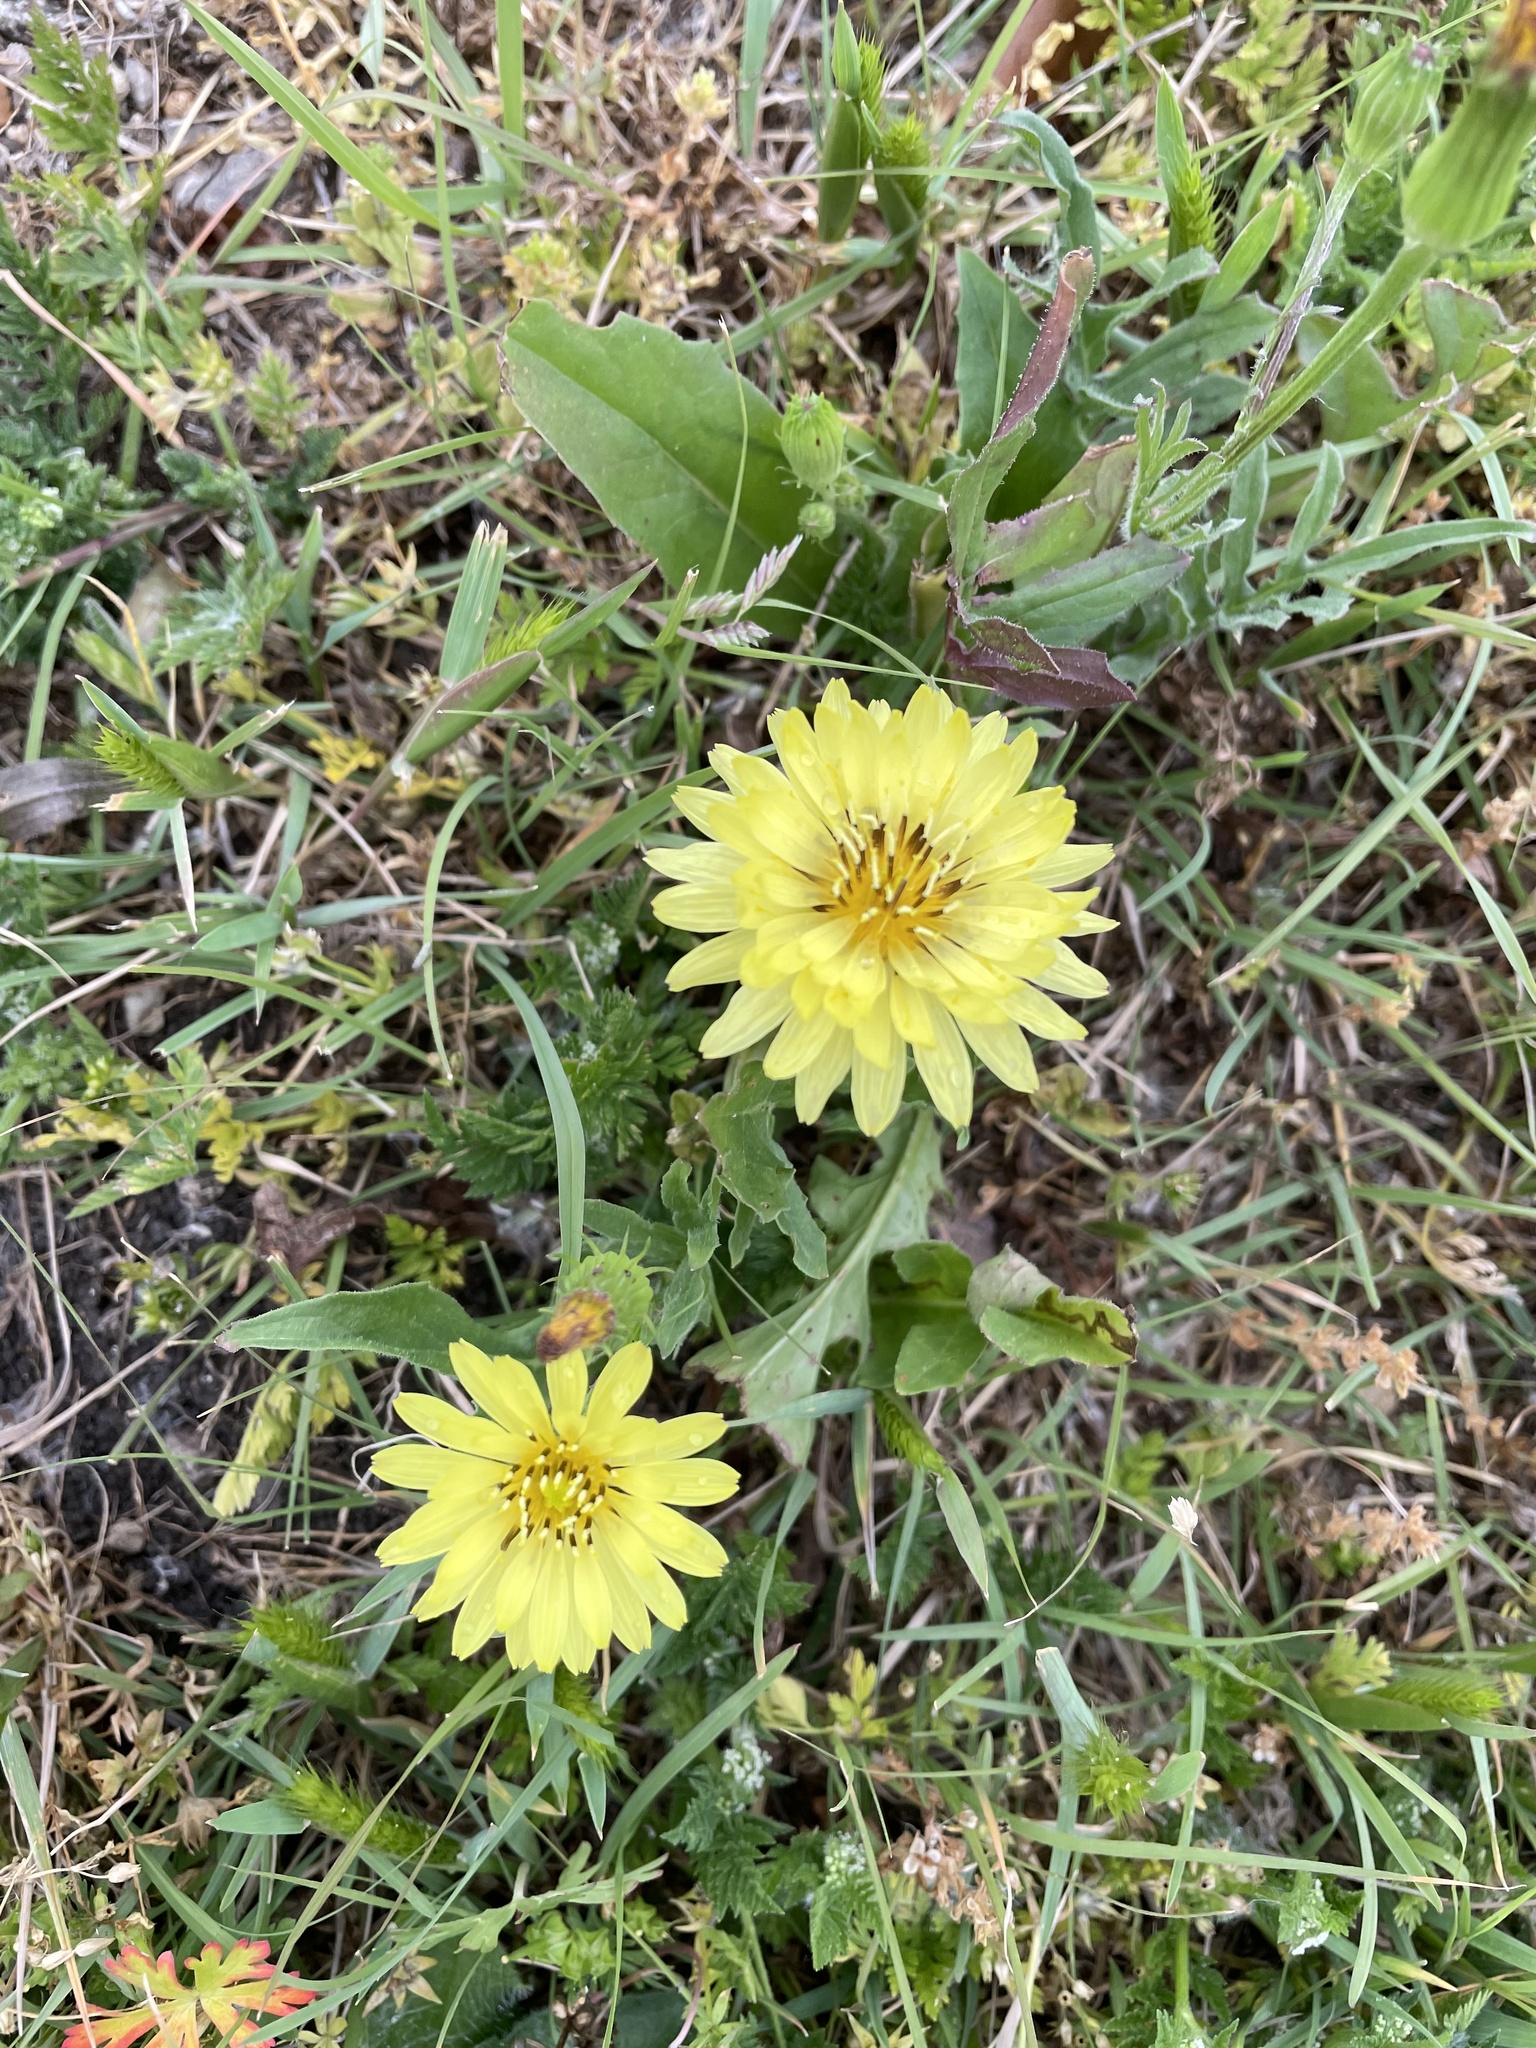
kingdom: Plantae
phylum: Tracheophyta
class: Magnoliopsida
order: Asterales
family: Asteraceae
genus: Pyrrhopappus
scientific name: Pyrrhopappus pauciflorus
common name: Texas false dandelion
